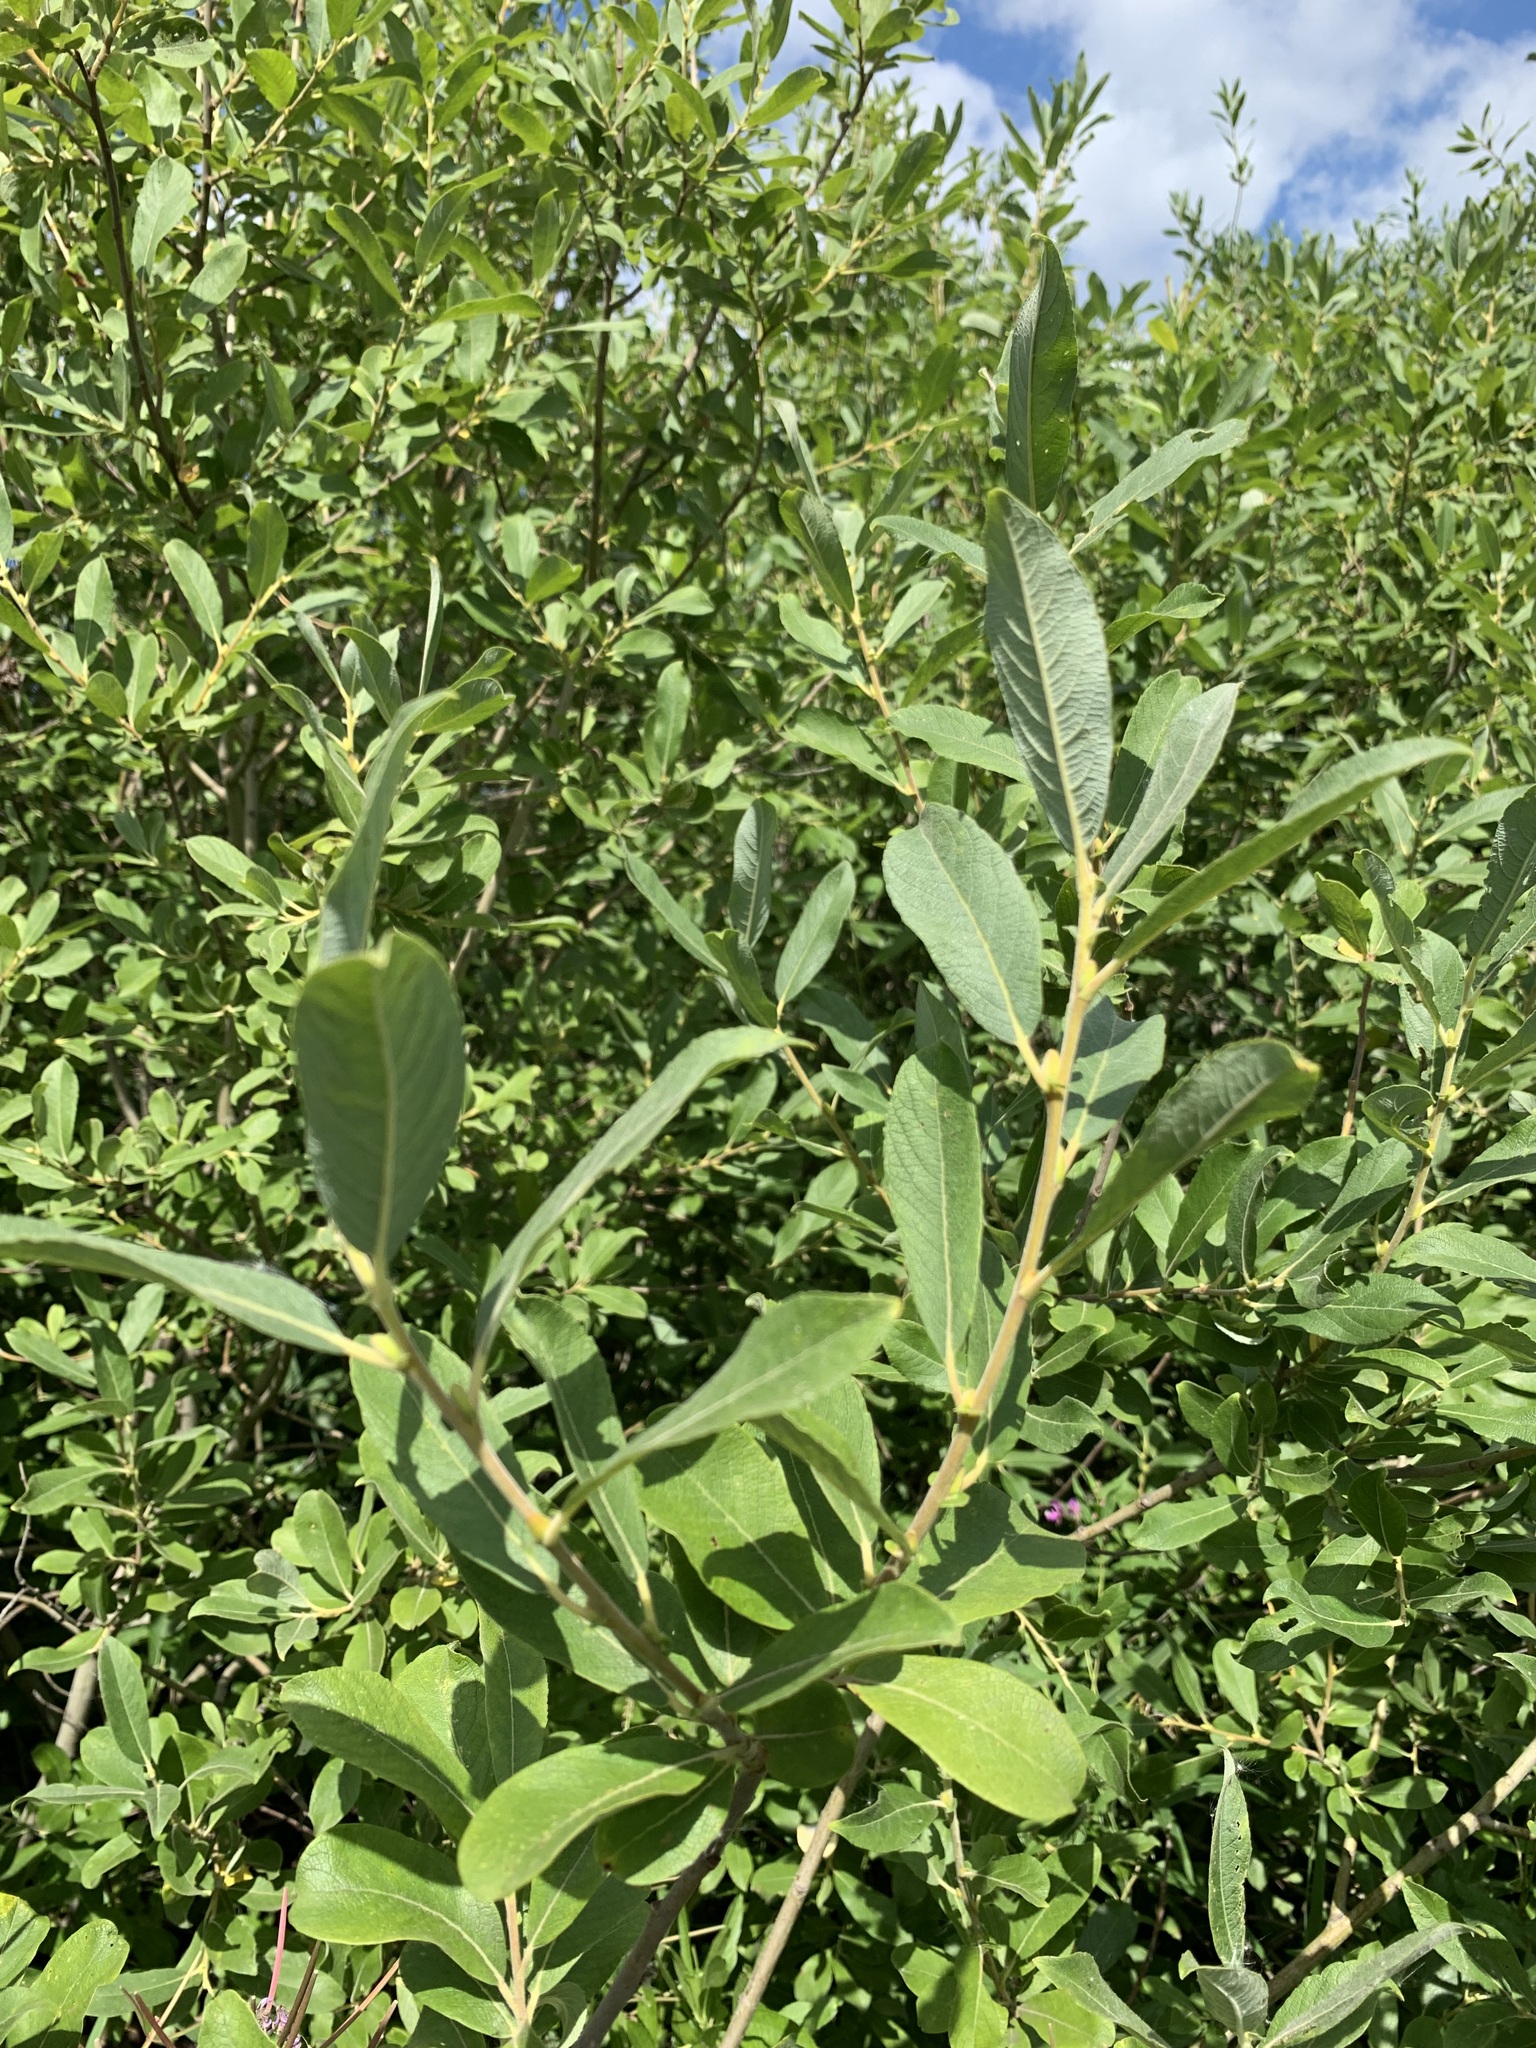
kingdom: Plantae
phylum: Tracheophyta
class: Magnoliopsida
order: Malpighiales
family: Salicaceae
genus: Salix
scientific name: Salix cinerea
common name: Common sallow
